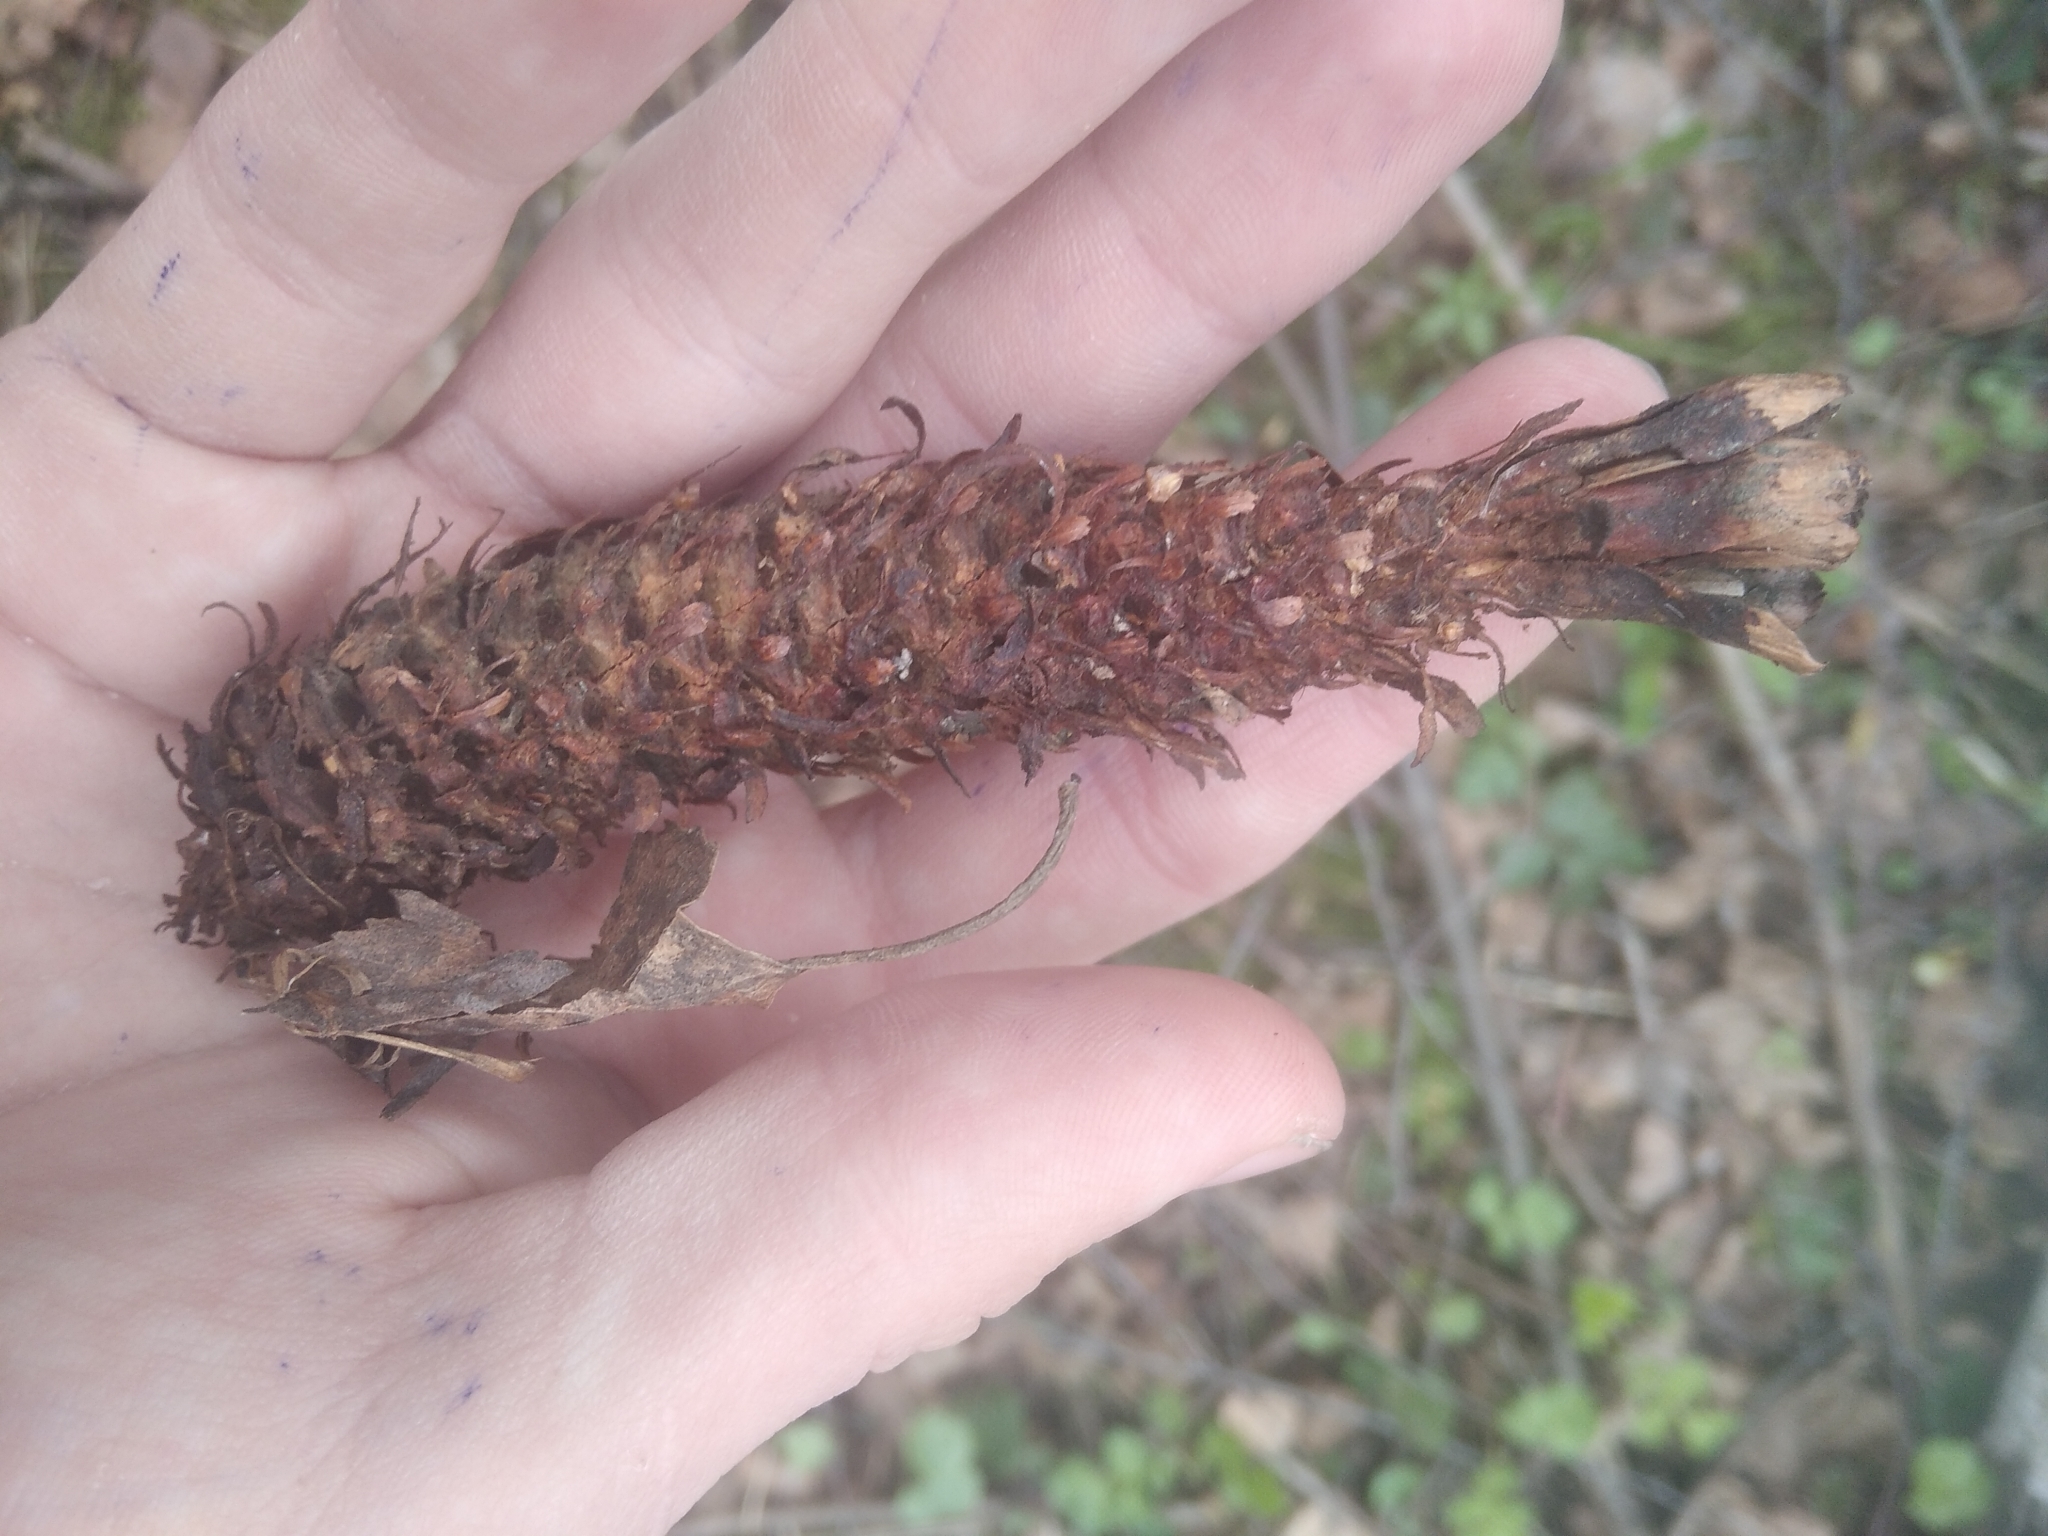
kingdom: Plantae
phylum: Tracheophyta
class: Pinopsida
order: Pinales
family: Pinaceae
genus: Picea
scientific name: Picea abies
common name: Norway spruce
